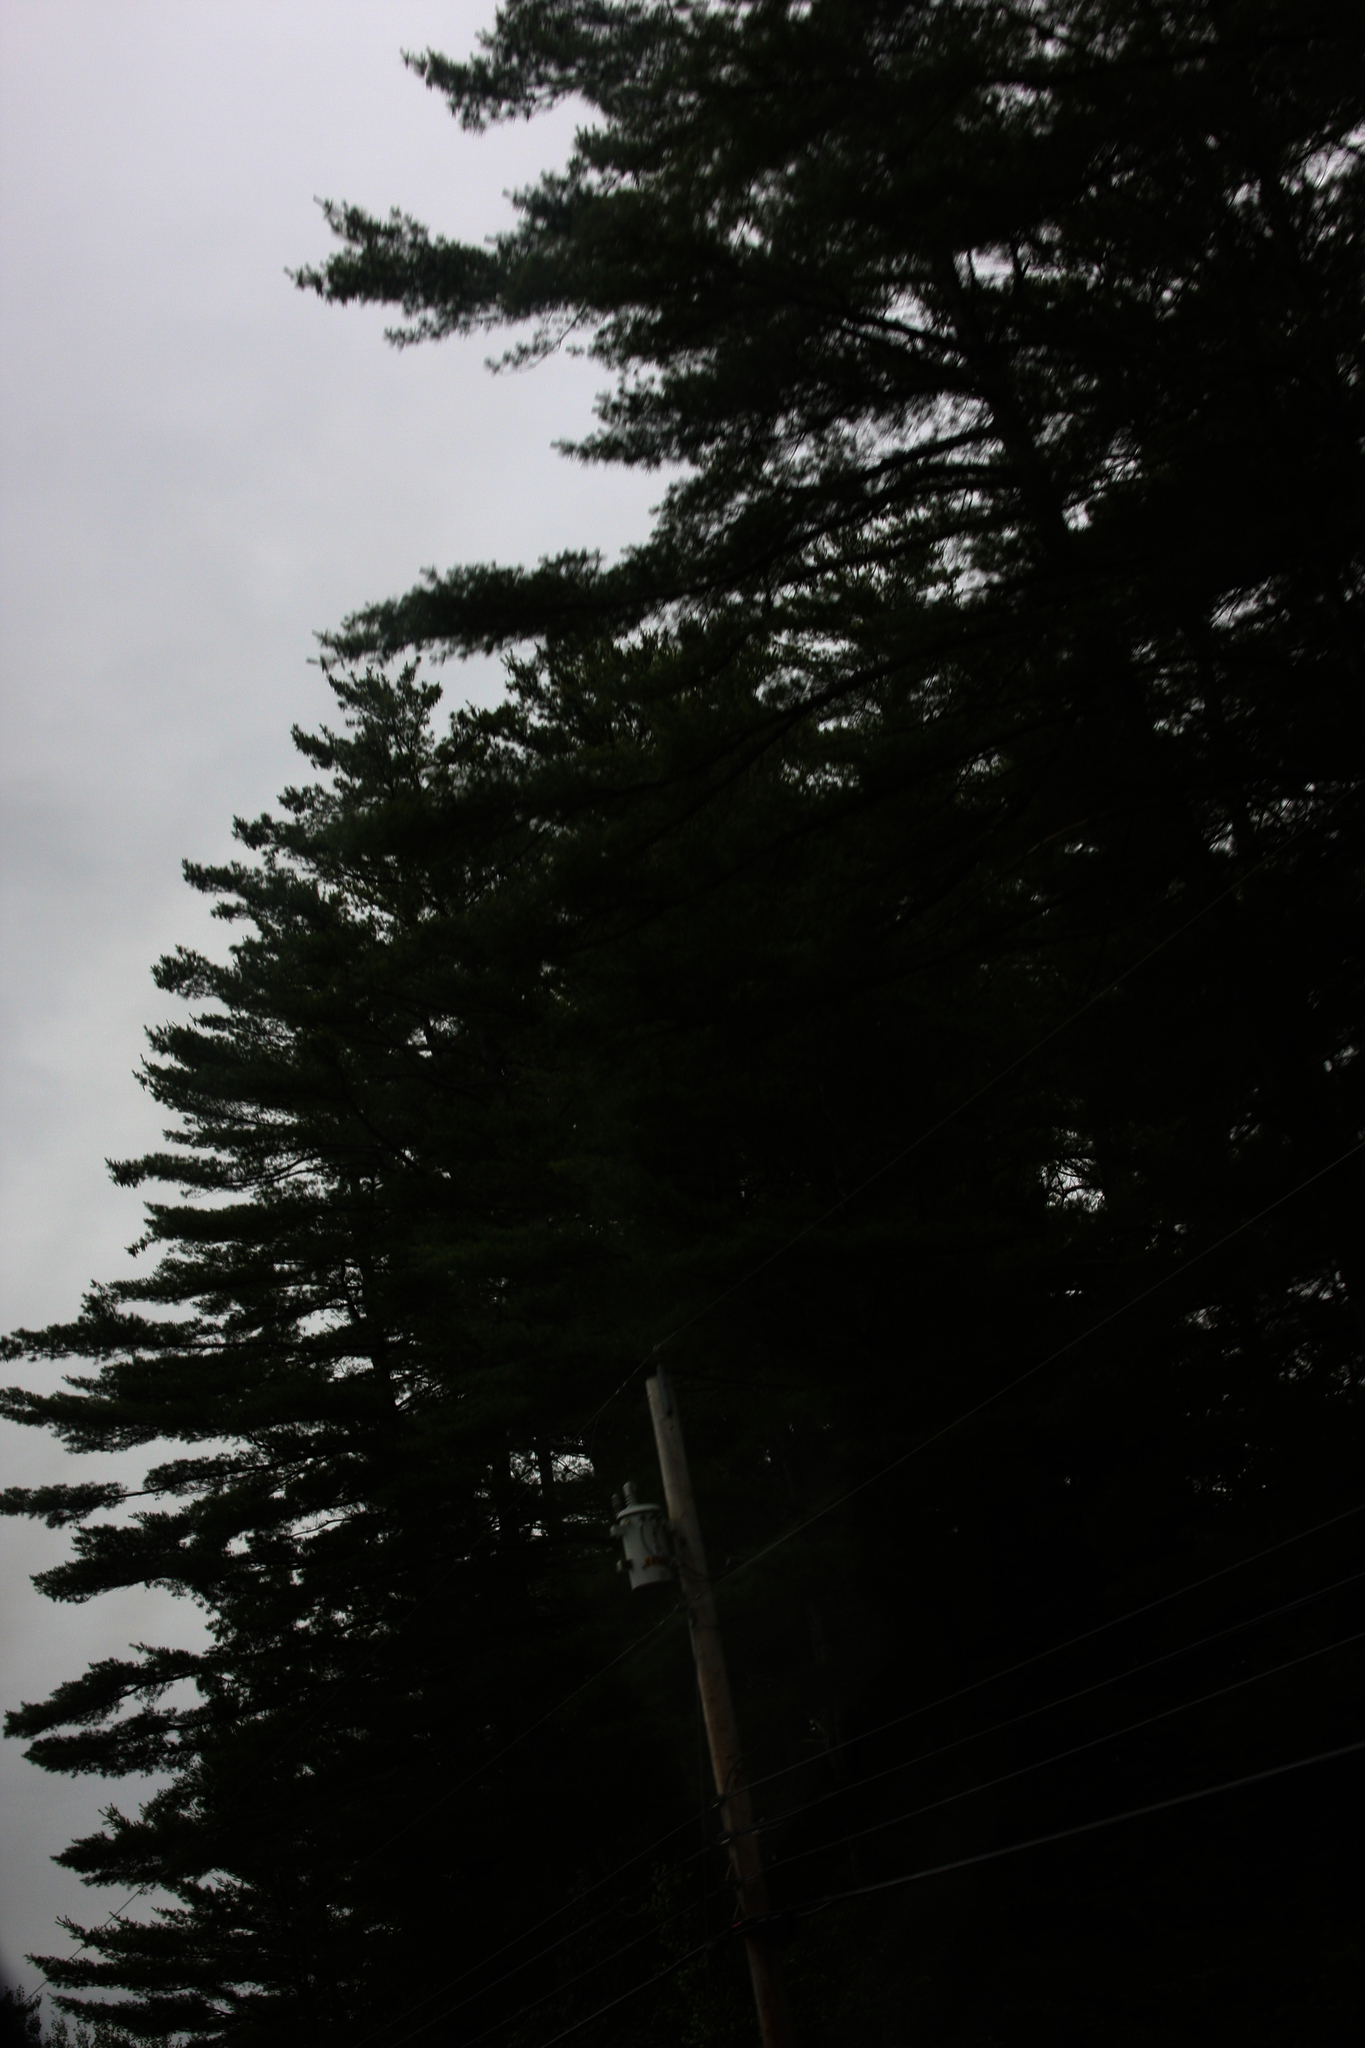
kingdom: Plantae
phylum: Tracheophyta
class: Pinopsida
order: Pinales
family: Pinaceae
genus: Pinus
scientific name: Pinus strobus
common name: Weymouth pine
